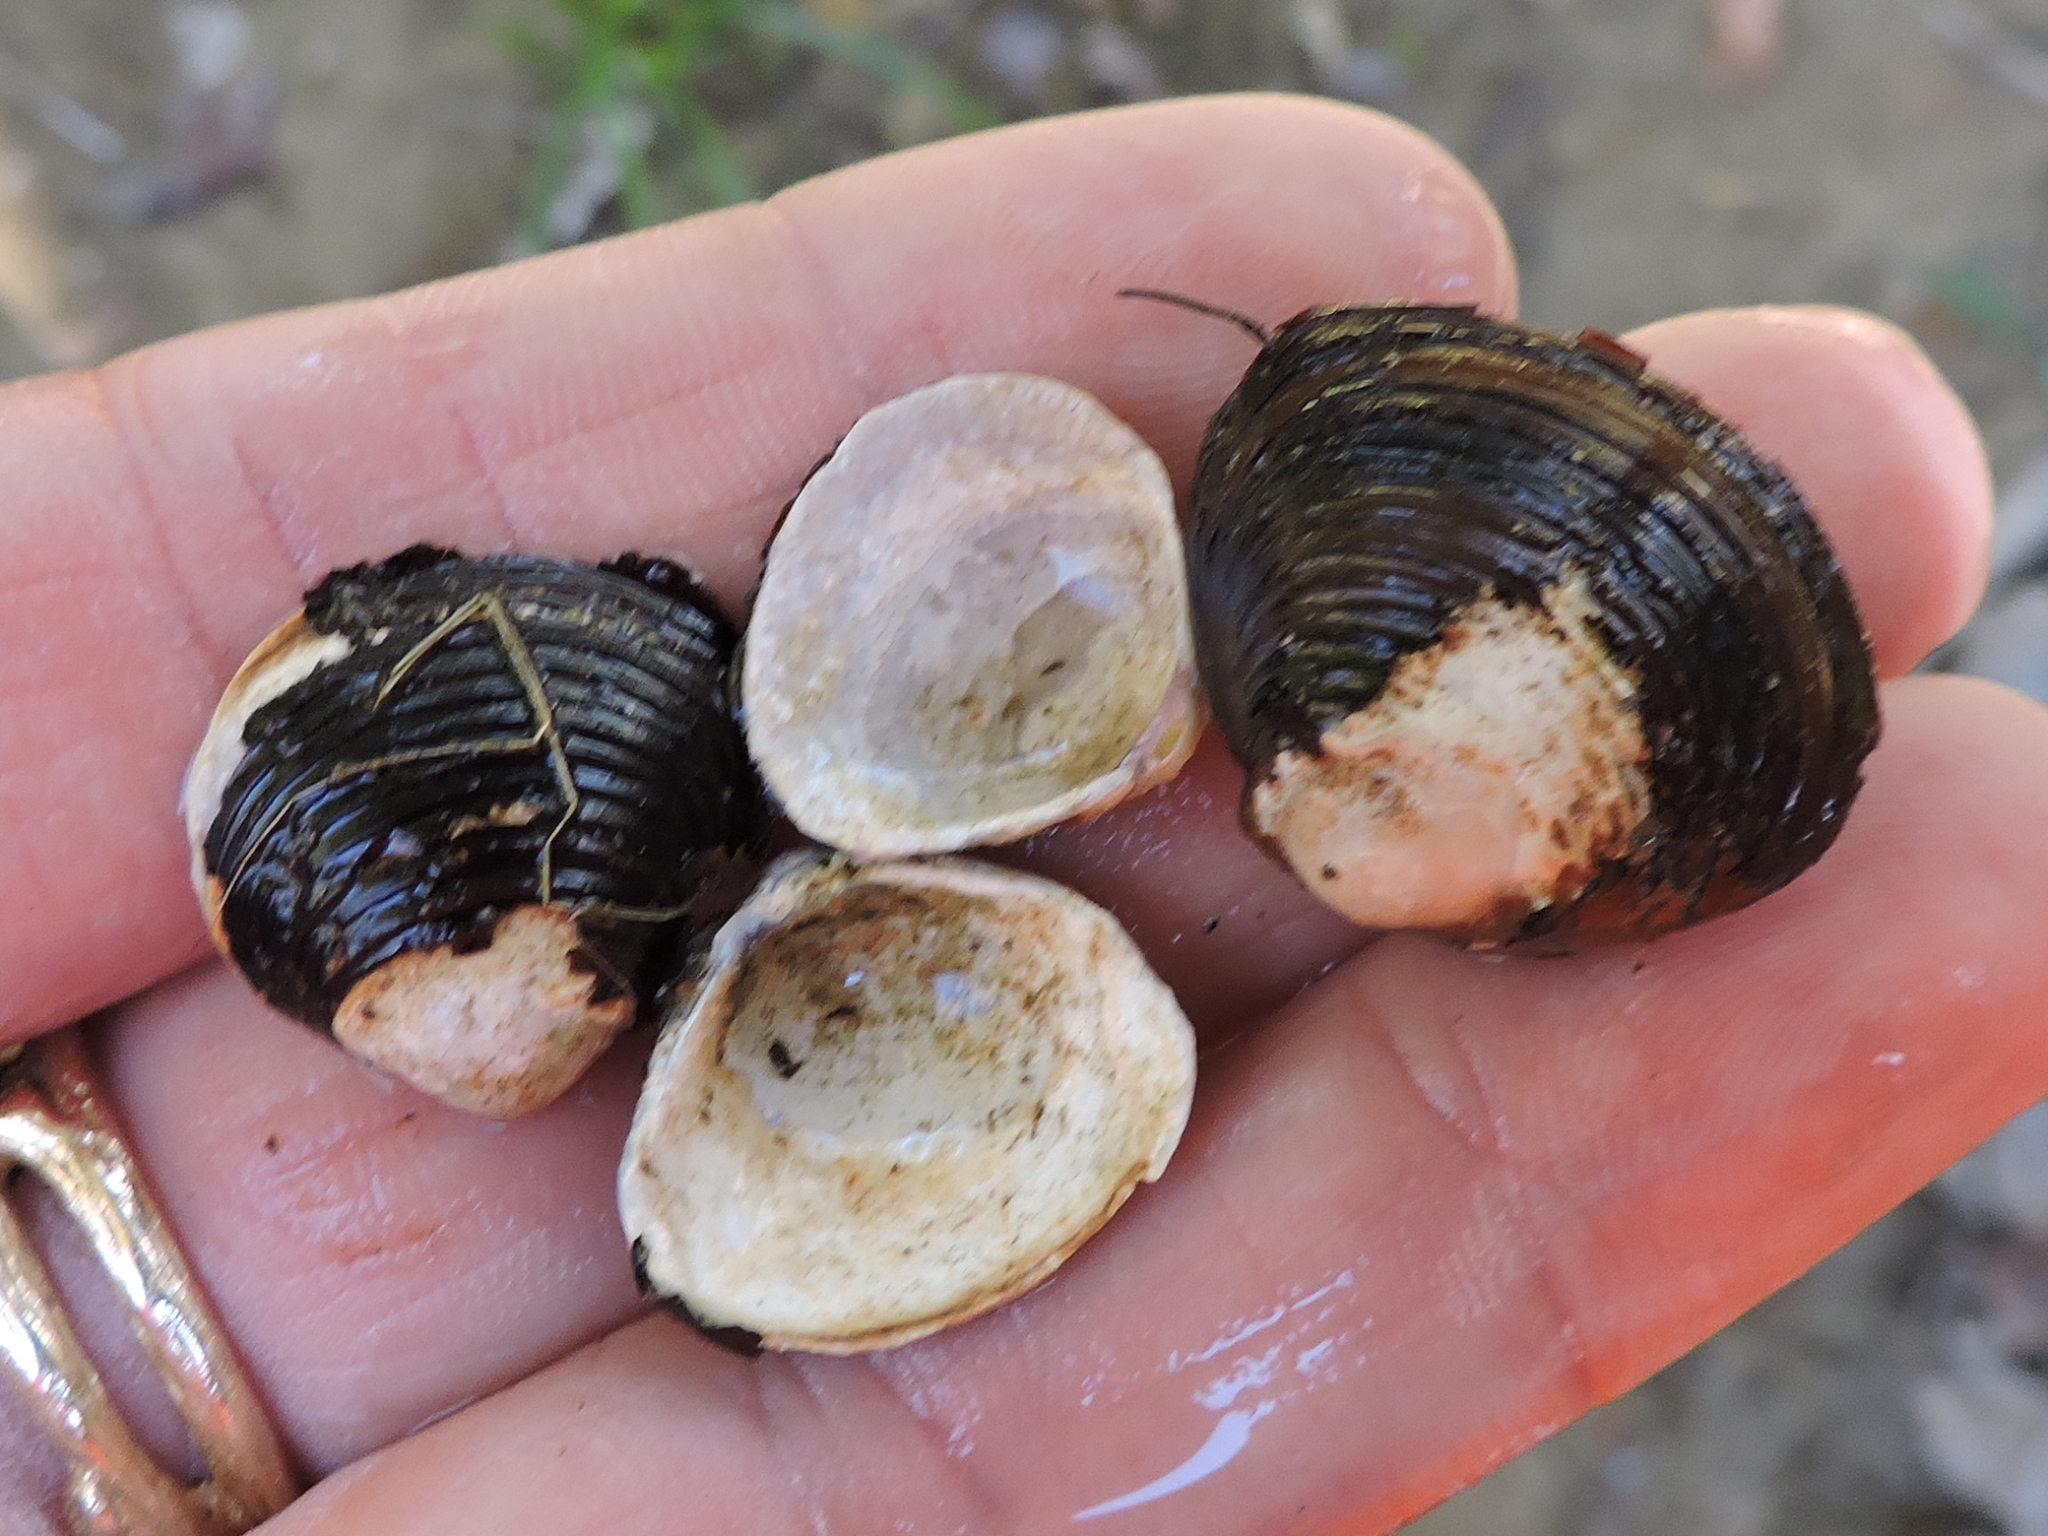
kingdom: Animalia
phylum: Mollusca
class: Bivalvia
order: Venerida
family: Cyrenidae
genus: Corbicula
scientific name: Corbicula fluminea
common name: Asian clam
